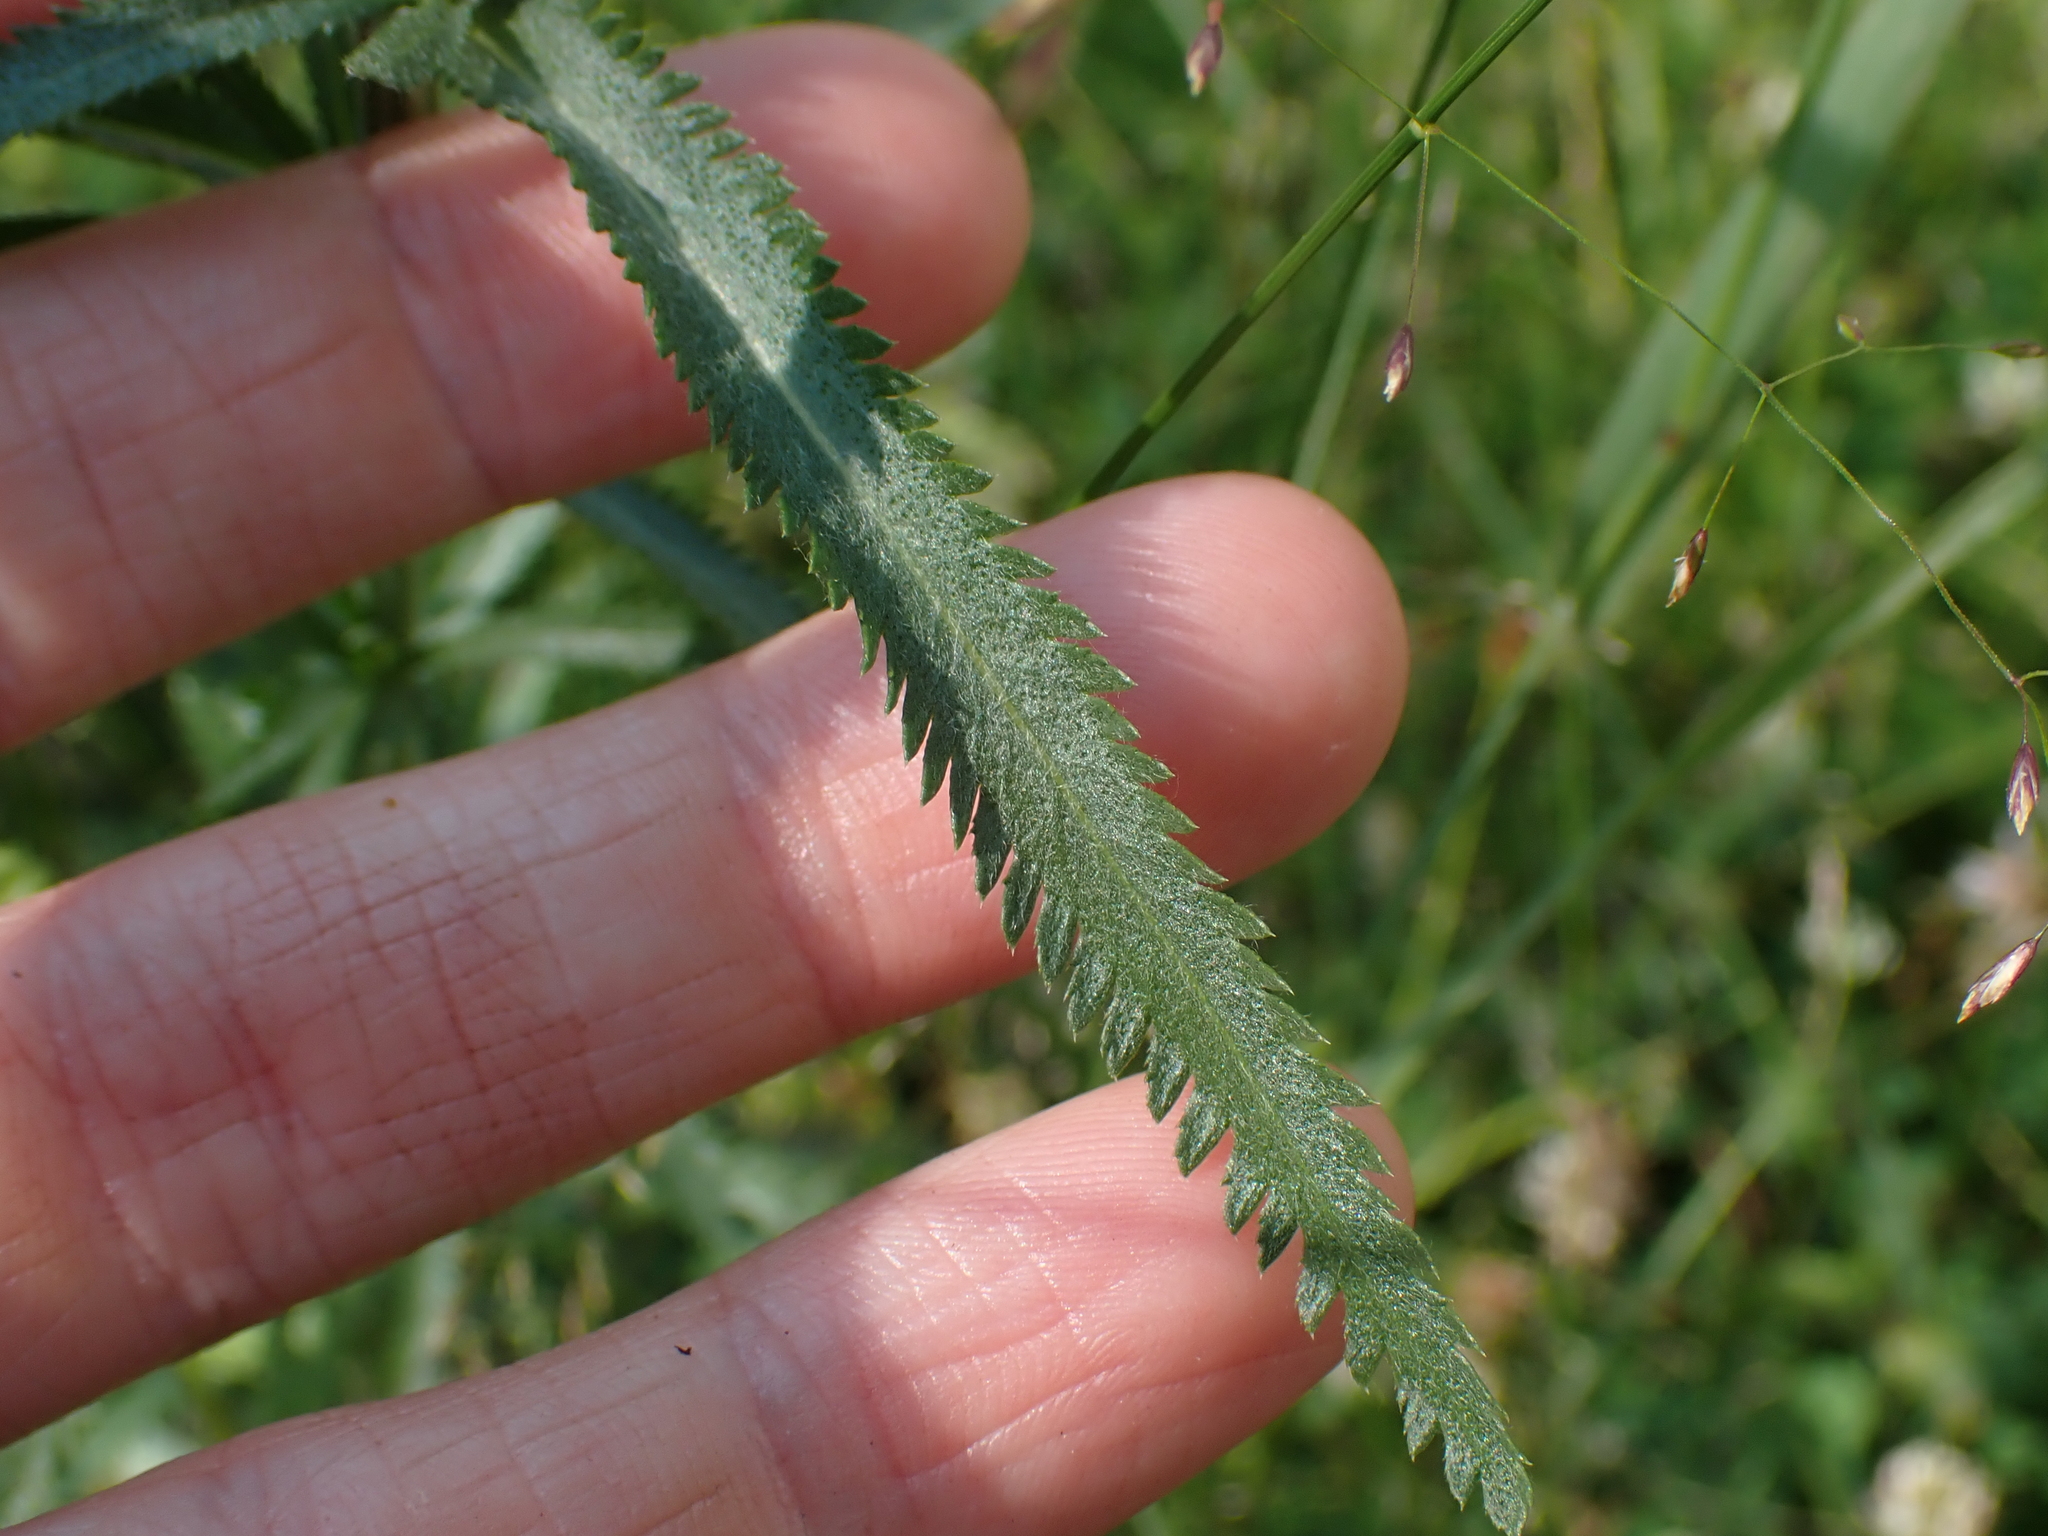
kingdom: Plantae
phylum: Tracheophyta
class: Magnoliopsida
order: Asterales
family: Asteraceae
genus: Achillea
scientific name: Achillea alpina
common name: Siberian yarrow
